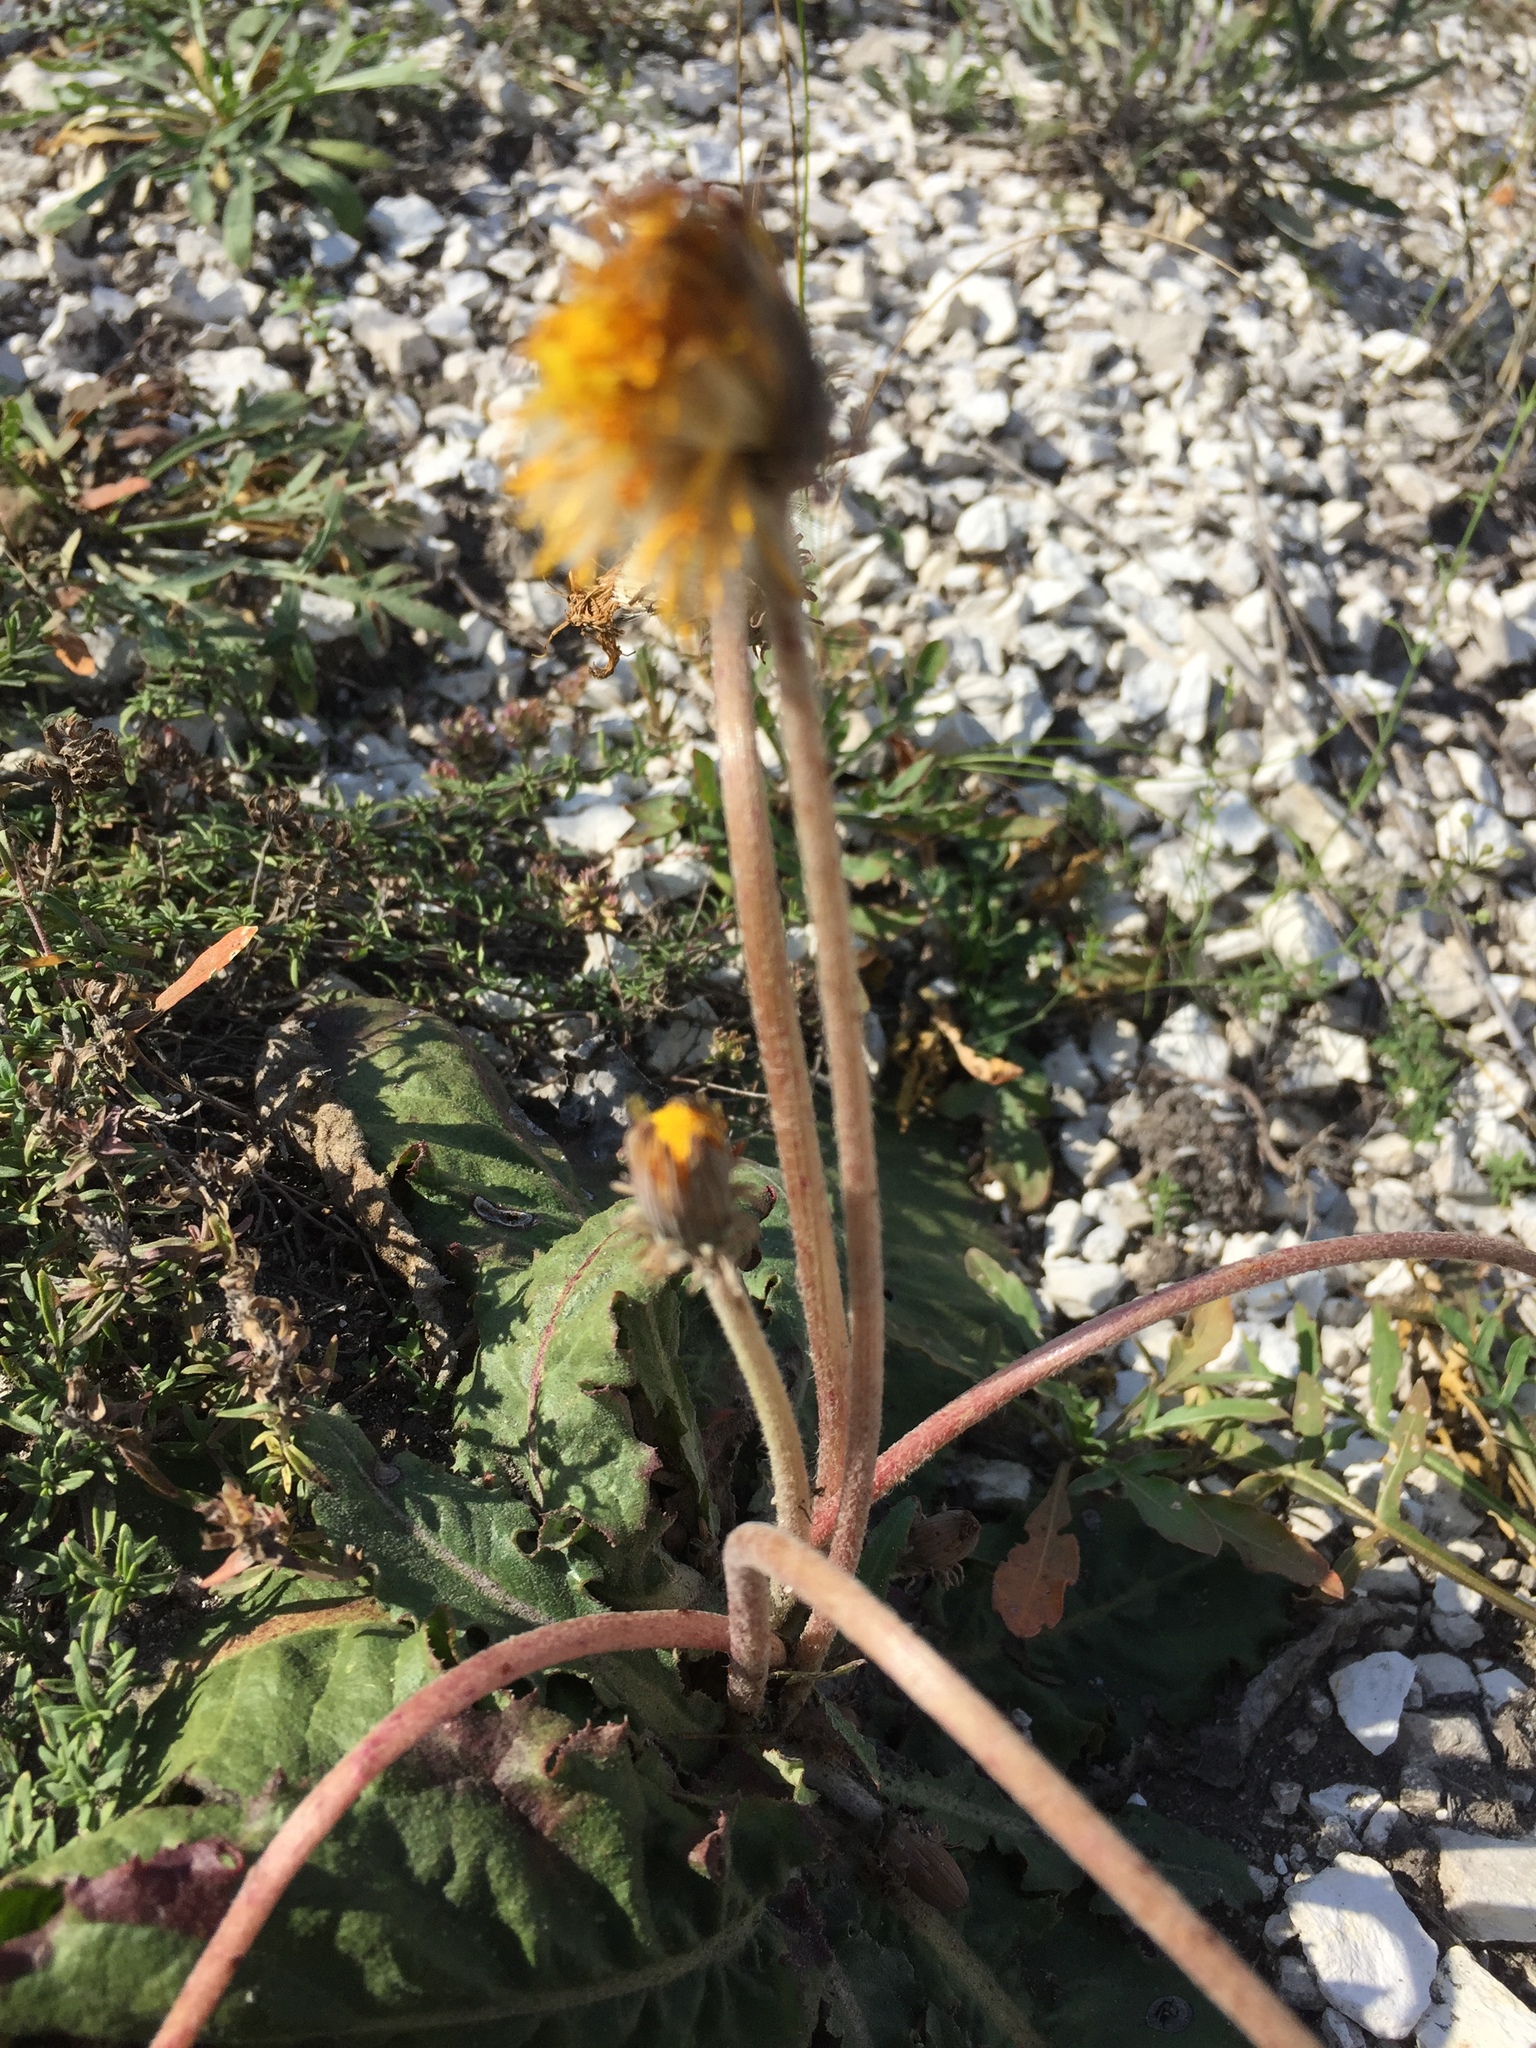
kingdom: Plantae
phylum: Tracheophyta
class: Magnoliopsida
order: Asterales
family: Asteraceae
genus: Taraxacum
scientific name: Taraxacum serotinum
